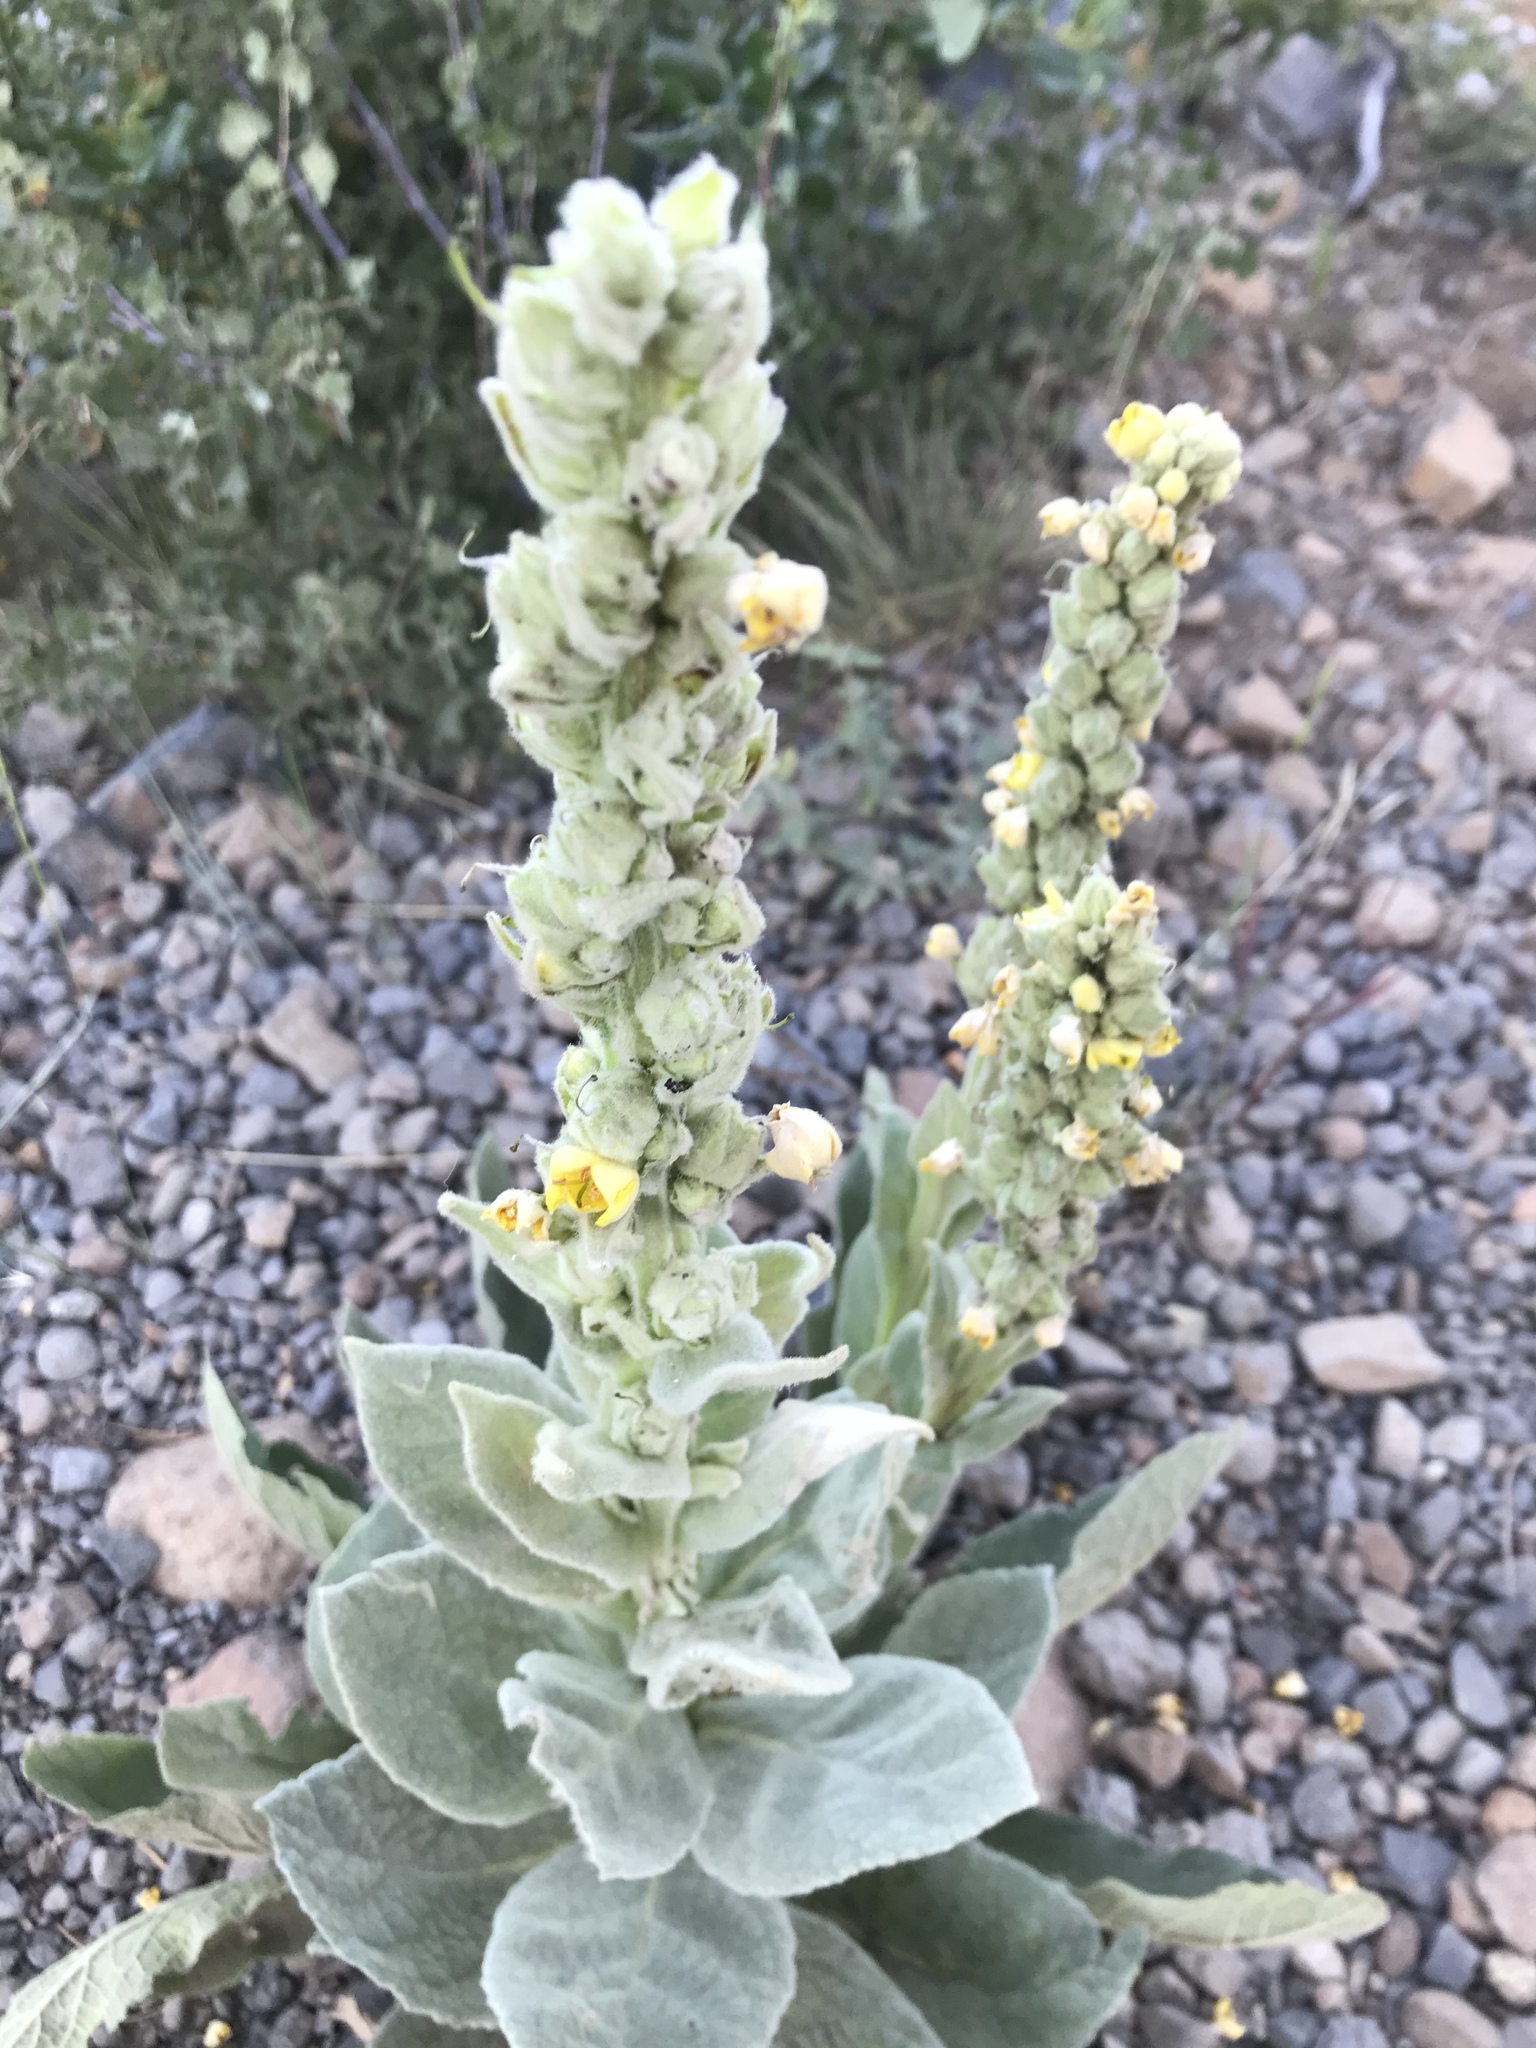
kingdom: Plantae
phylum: Tracheophyta
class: Magnoliopsida
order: Lamiales
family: Scrophulariaceae
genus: Verbascum
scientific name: Verbascum thapsus
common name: Common mullein
